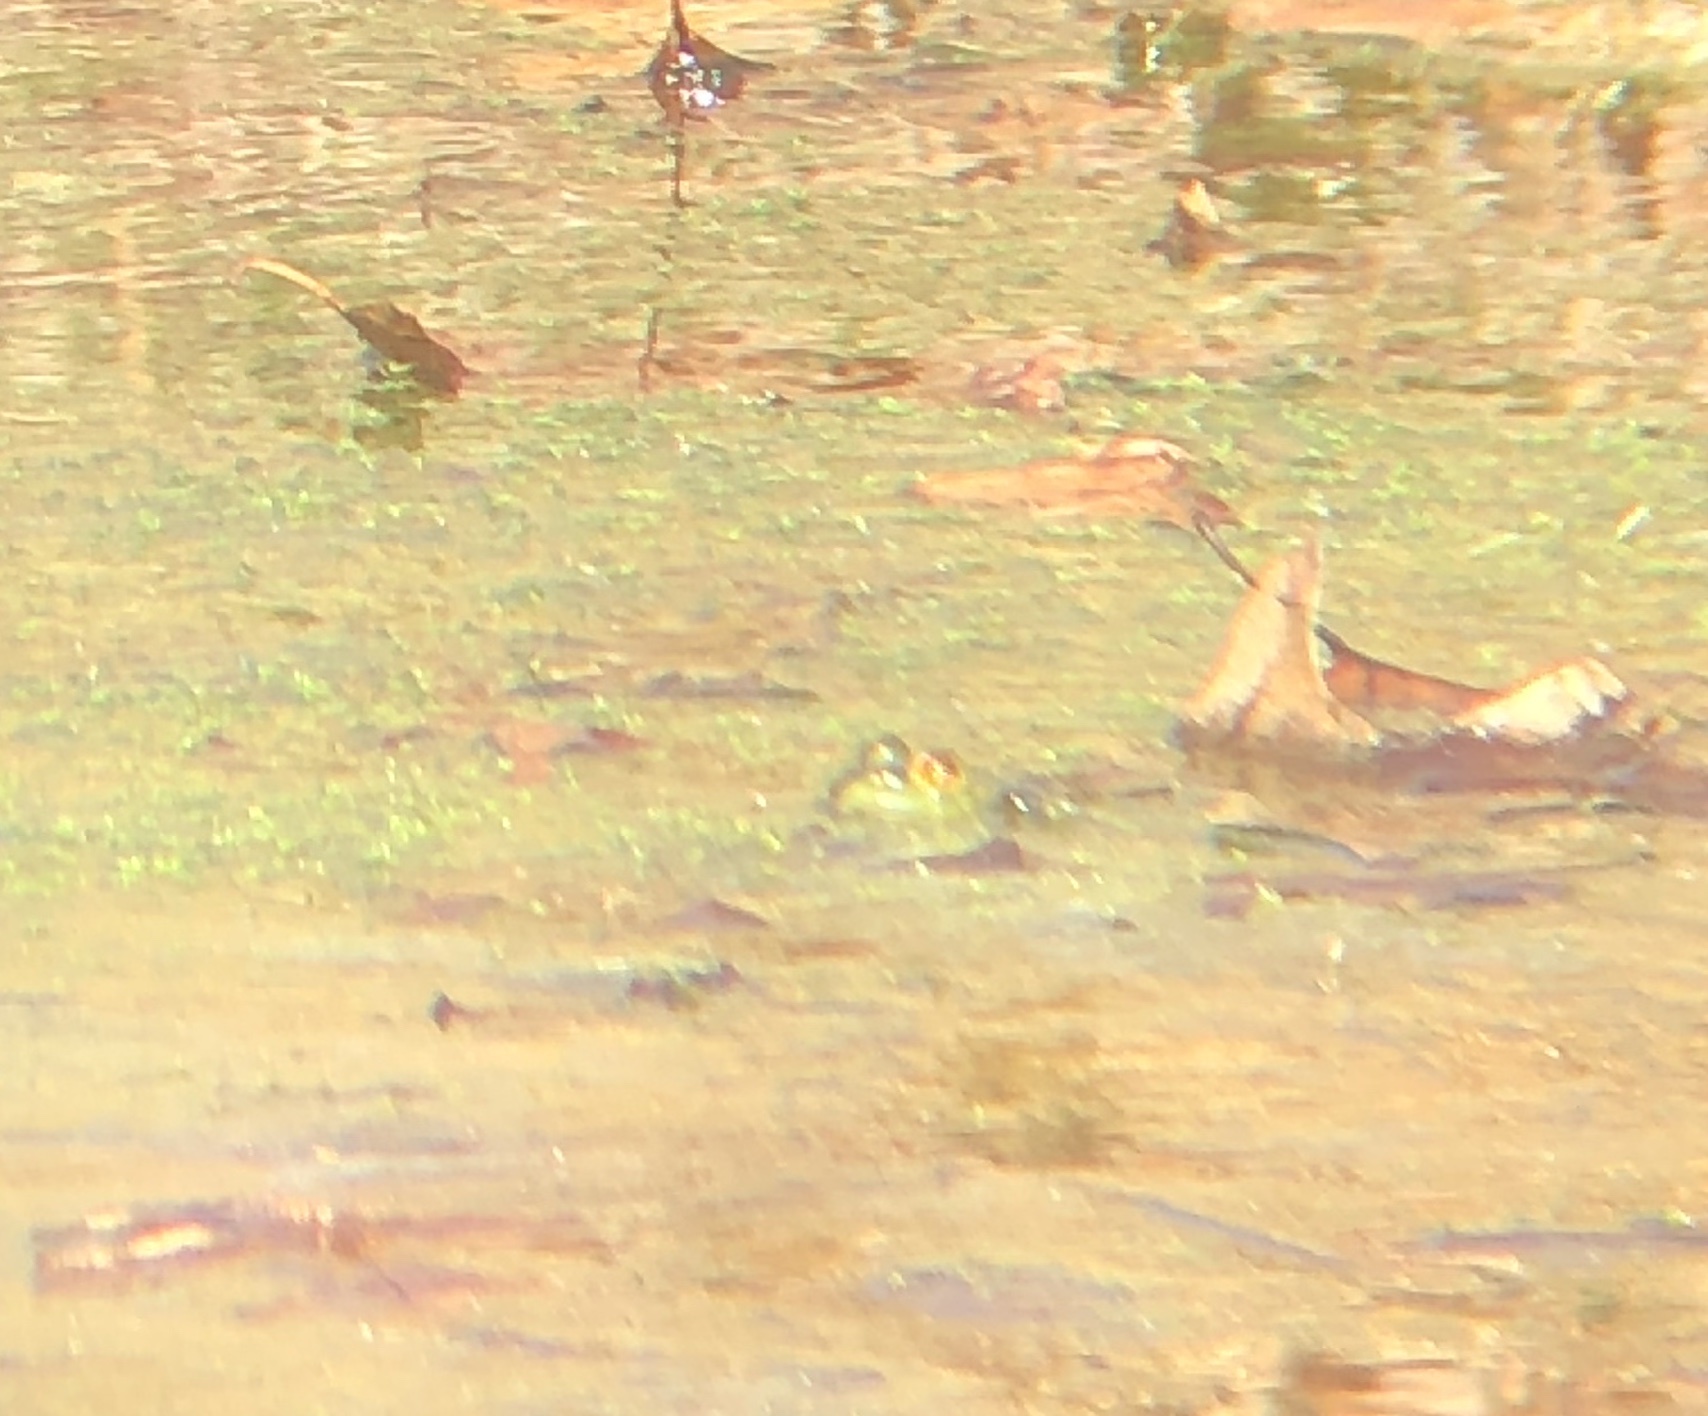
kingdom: Animalia
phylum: Chordata
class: Amphibia
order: Anura
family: Ranidae
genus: Lithobates
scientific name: Lithobates clamitans
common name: Green frog
